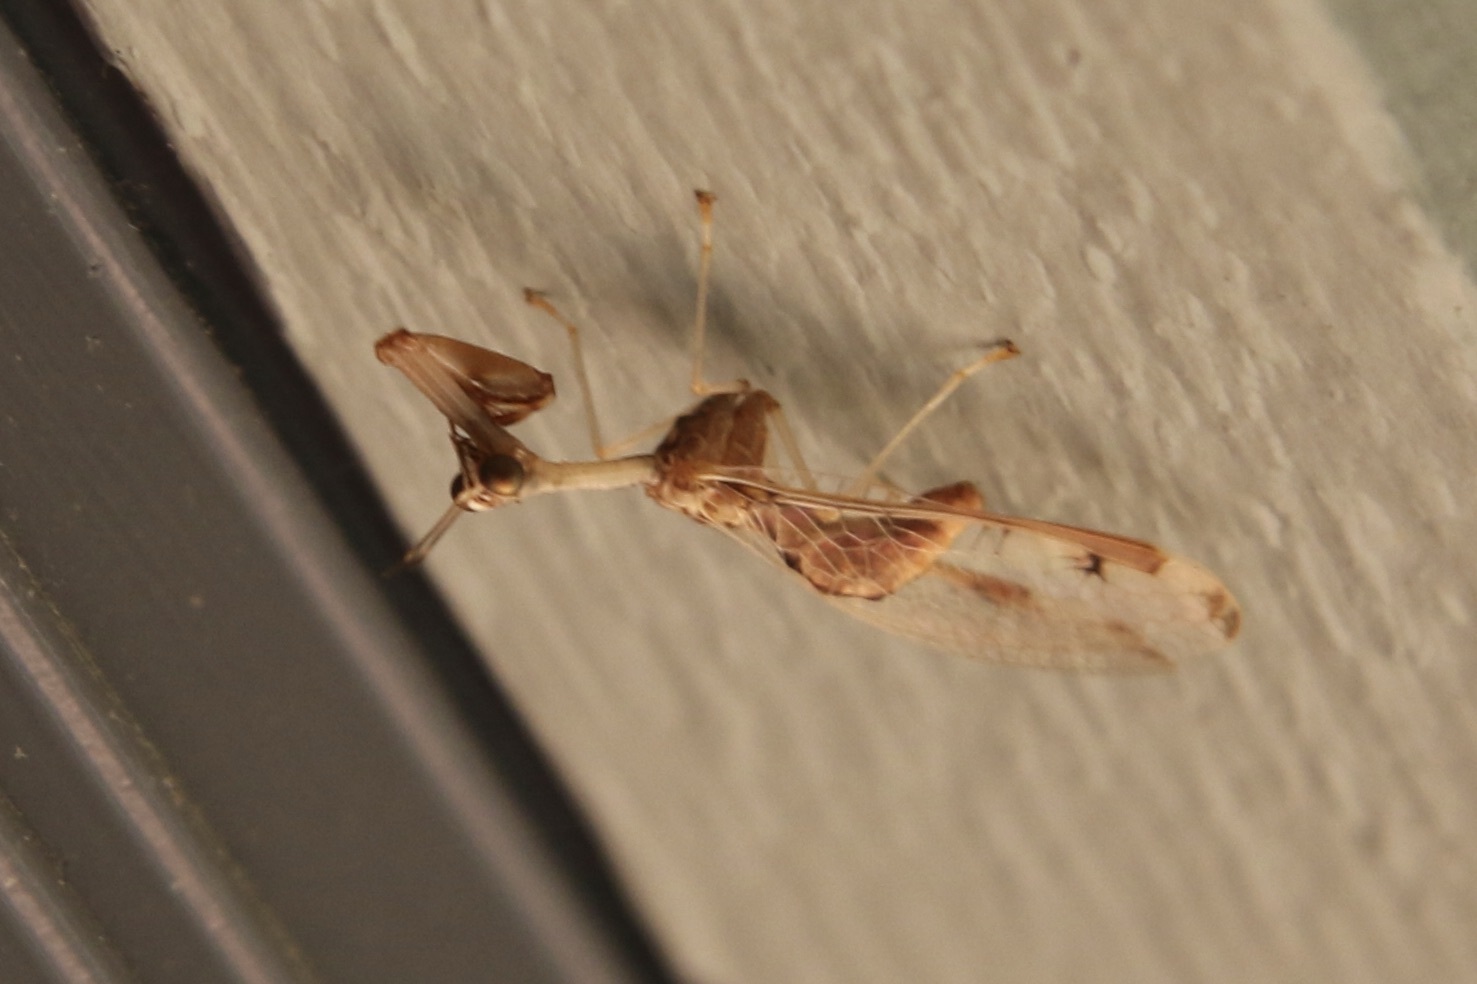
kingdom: Animalia
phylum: Arthropoda
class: Insecta
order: Neuroptera
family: Mantispidae
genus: Dicromantispa
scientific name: Dicromantispa interrupta
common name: Four-spotted mantidfly
